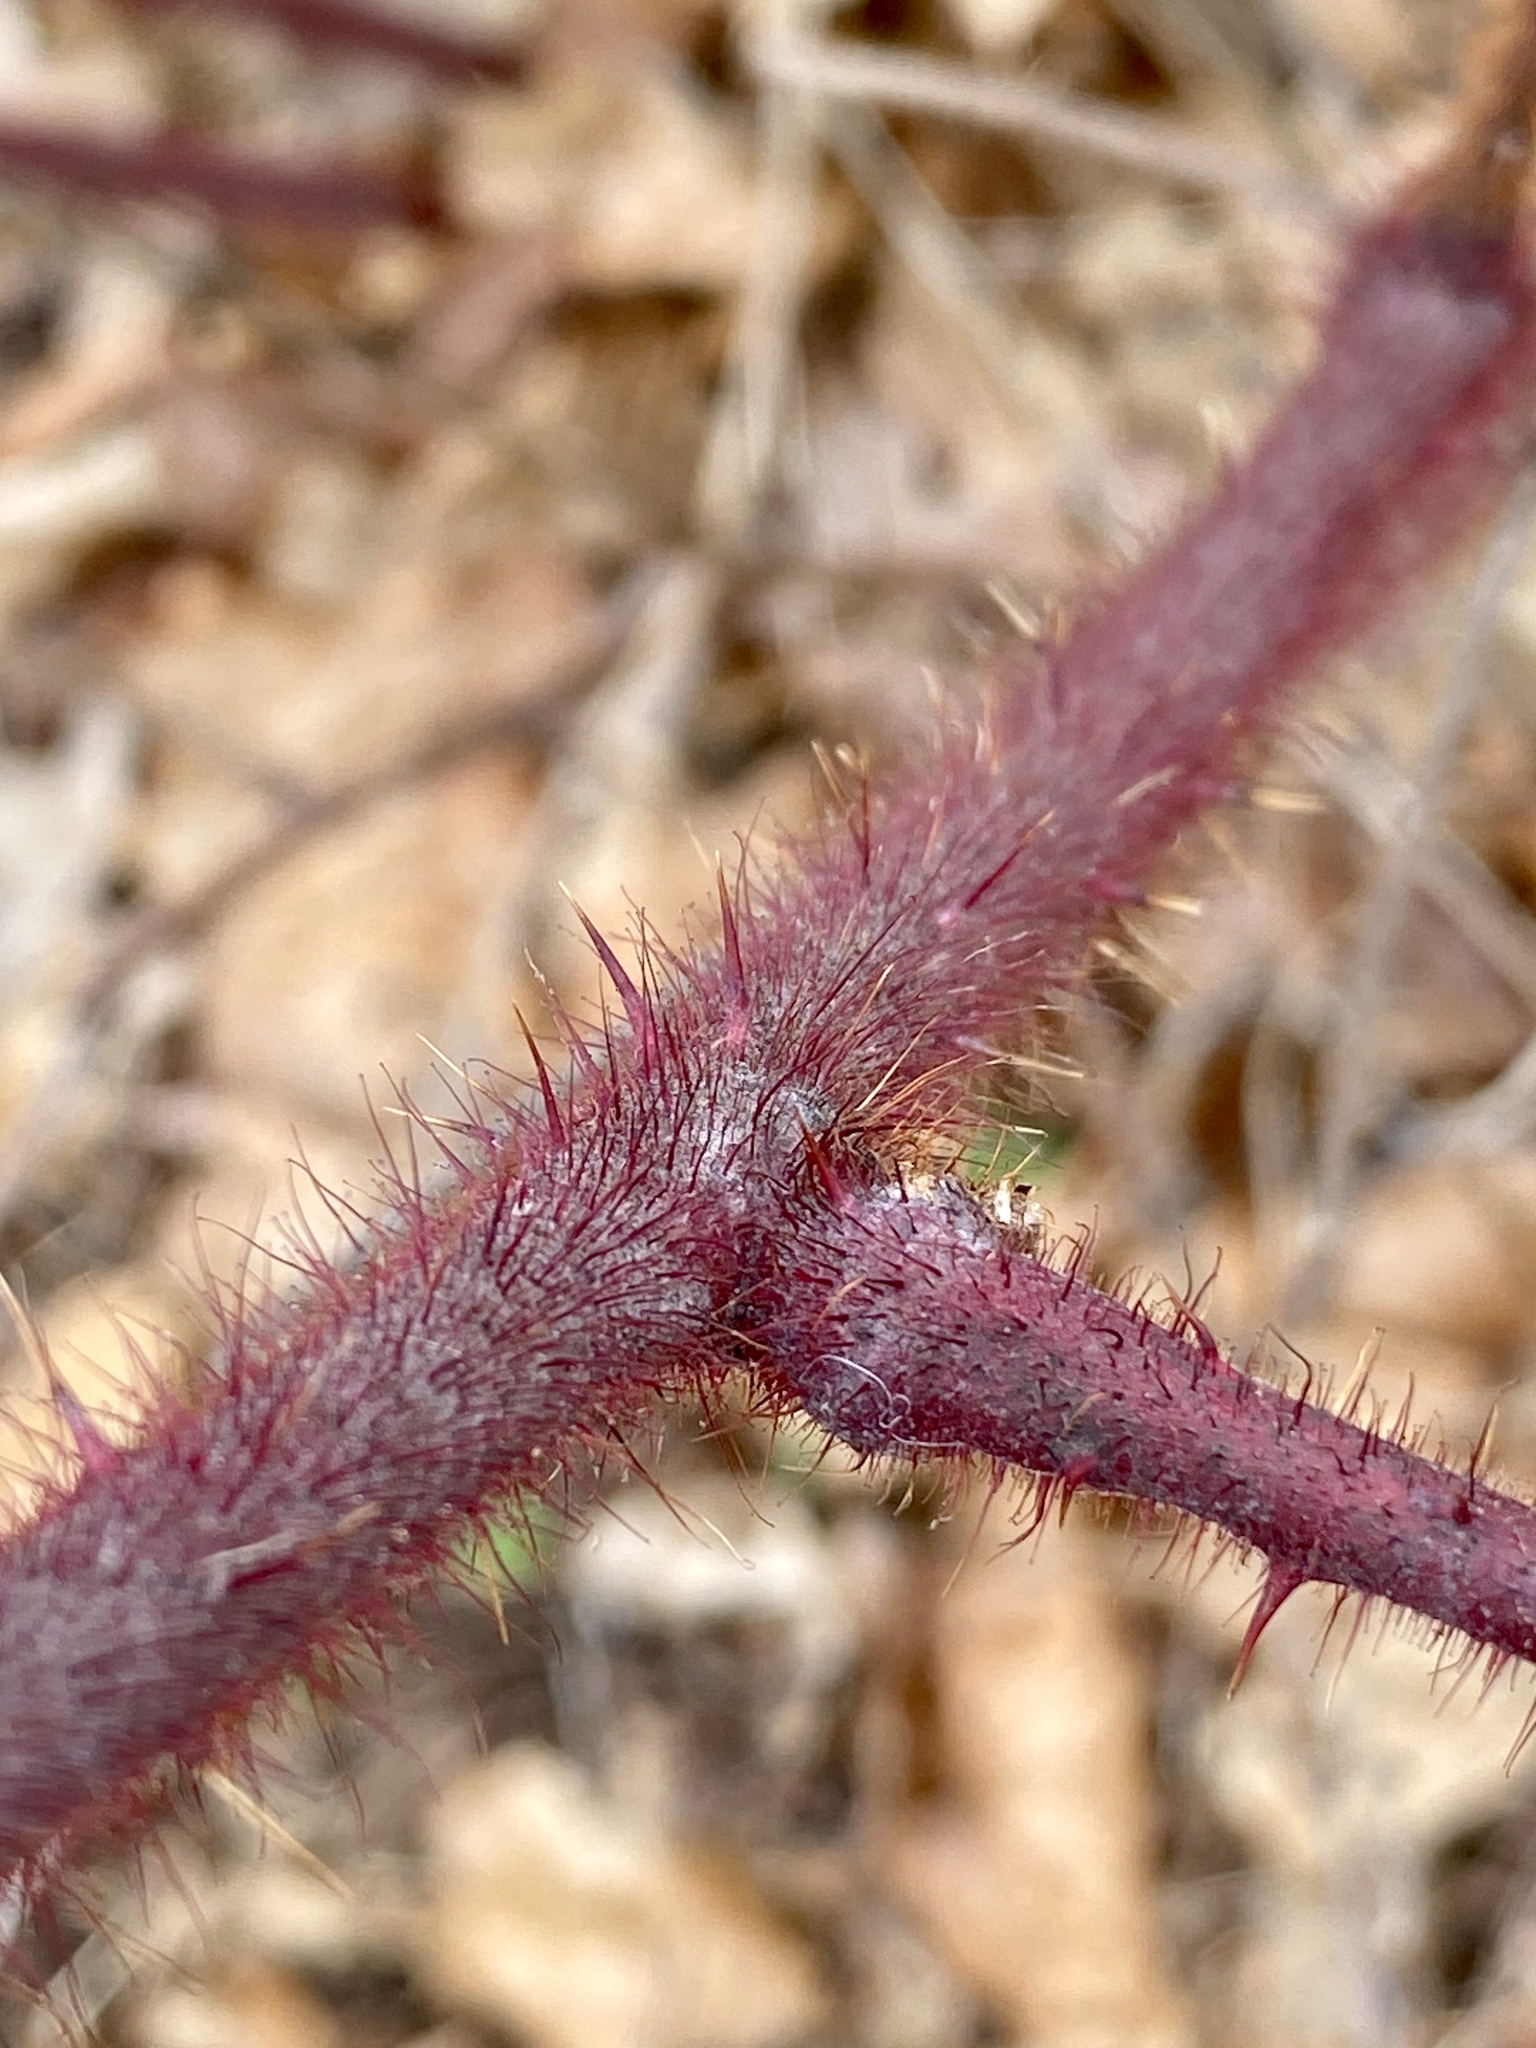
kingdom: Plantae
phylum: Tracheophyta
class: Magnoliopsida
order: Rosales
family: Rosaceae
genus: Rubus
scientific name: Rubus phoenicolasius
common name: Japanese wineberry
